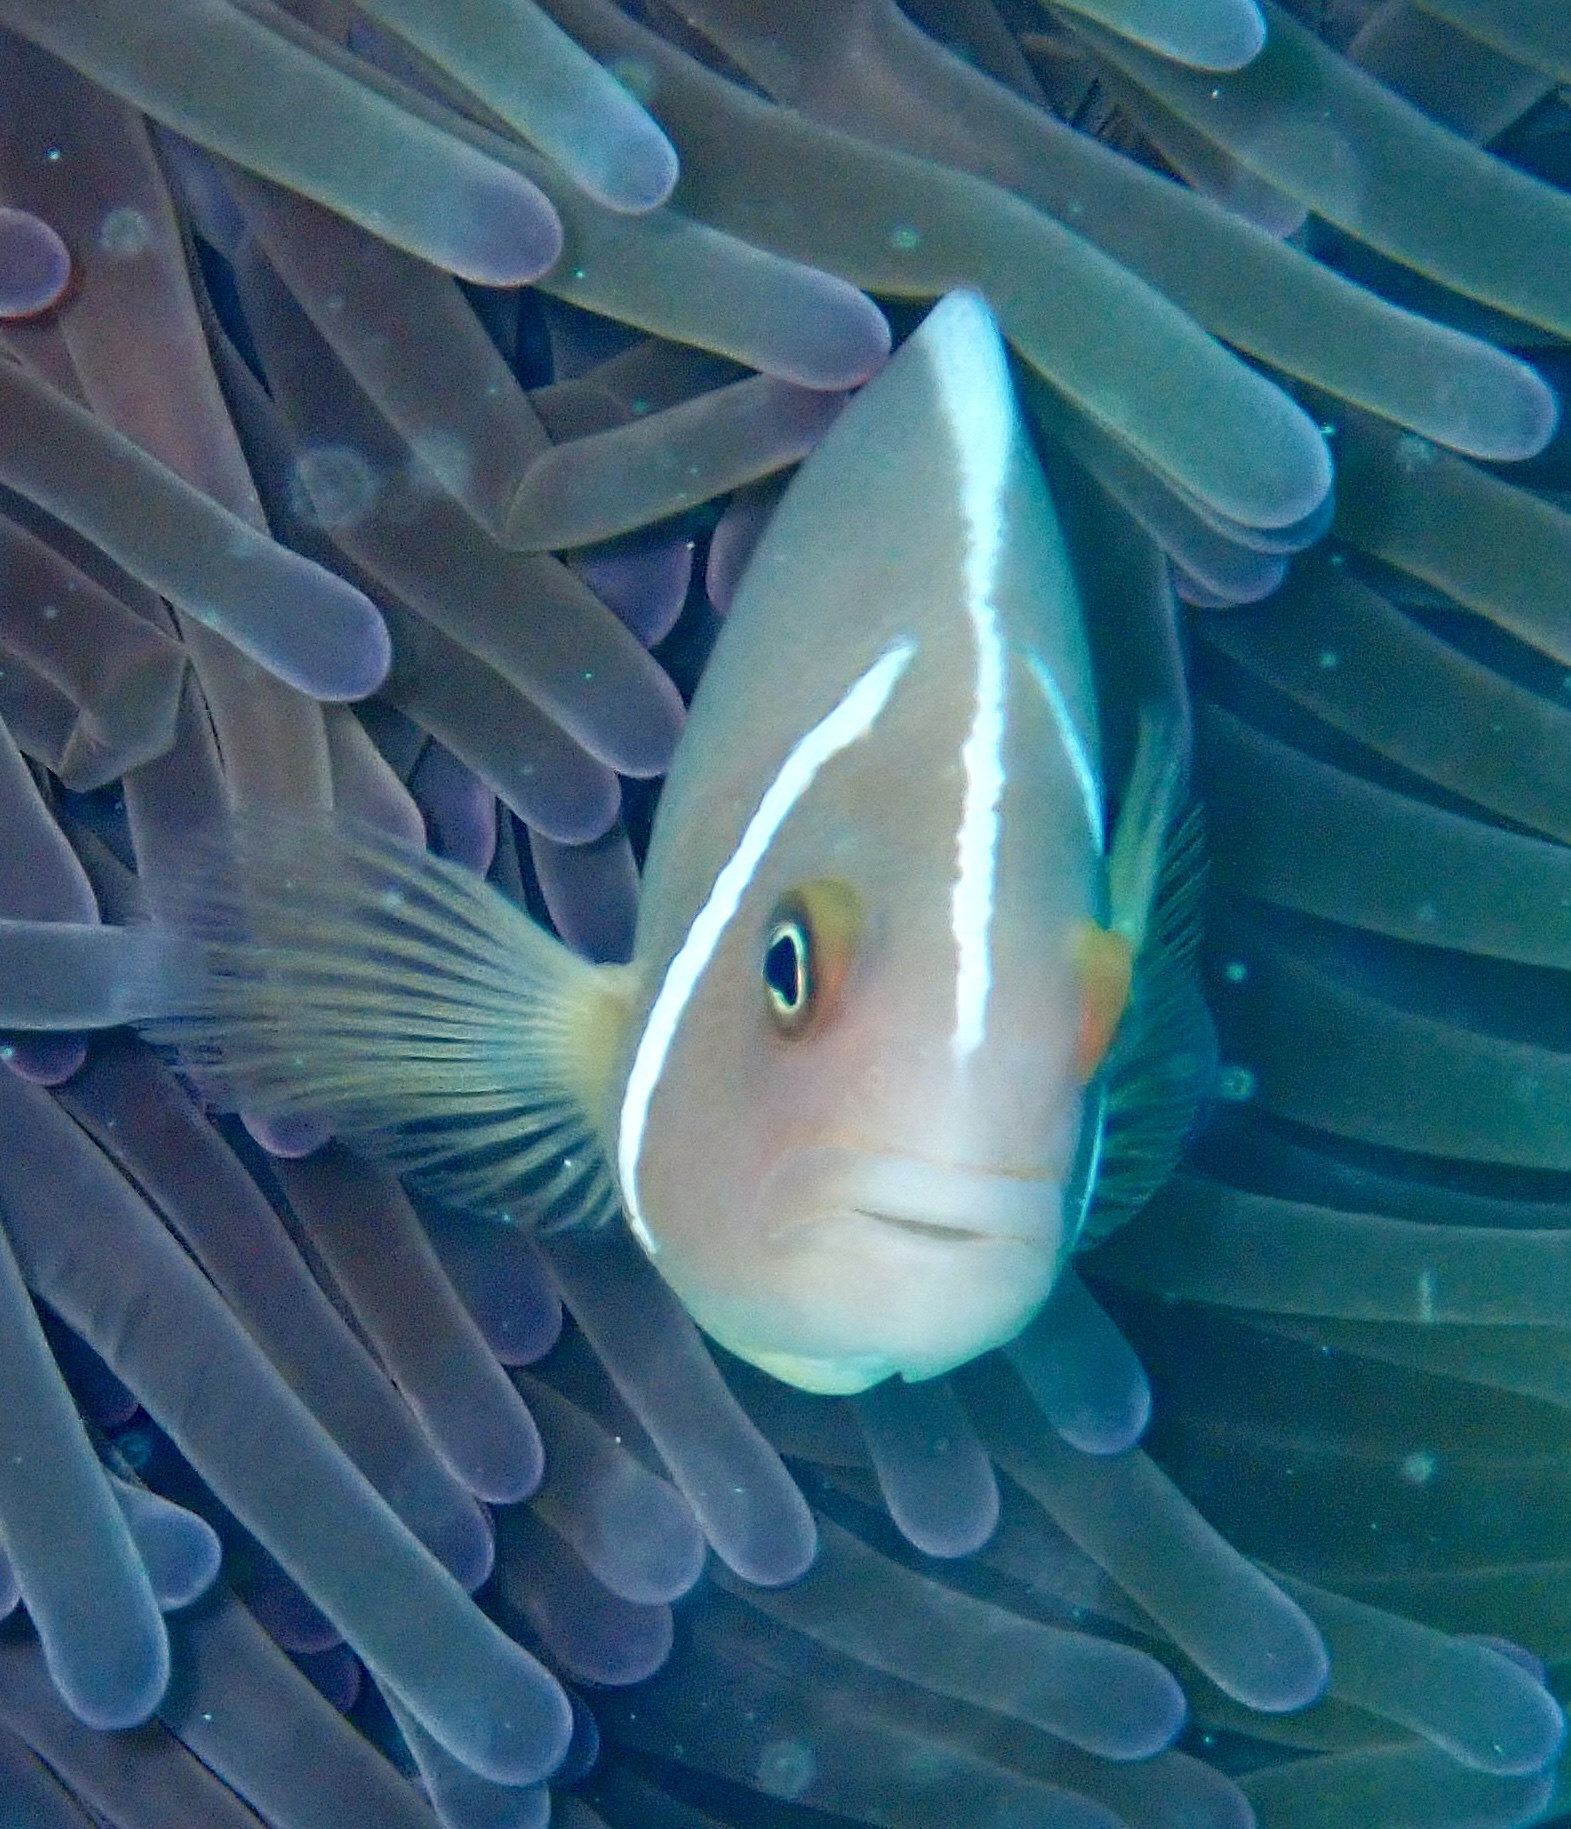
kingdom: Animalia
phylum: Chordata
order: Perciformes
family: Pomacentridae
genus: Amphiprion
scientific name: Amphiprion perideraion
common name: Pink anemonefish
